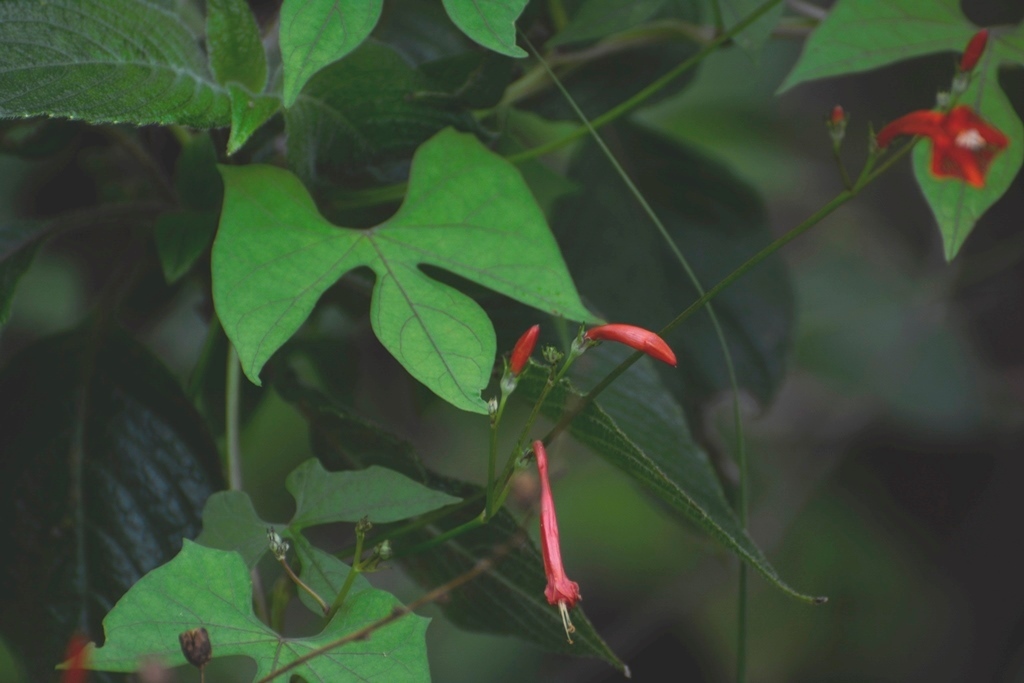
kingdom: Plantae
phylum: Tracheophyta
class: Magnoliopsida
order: Solanales
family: Convolvulaceae
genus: Ipomoea
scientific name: Ipomoea hederifolia
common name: Ivy-leaf morning-glory
